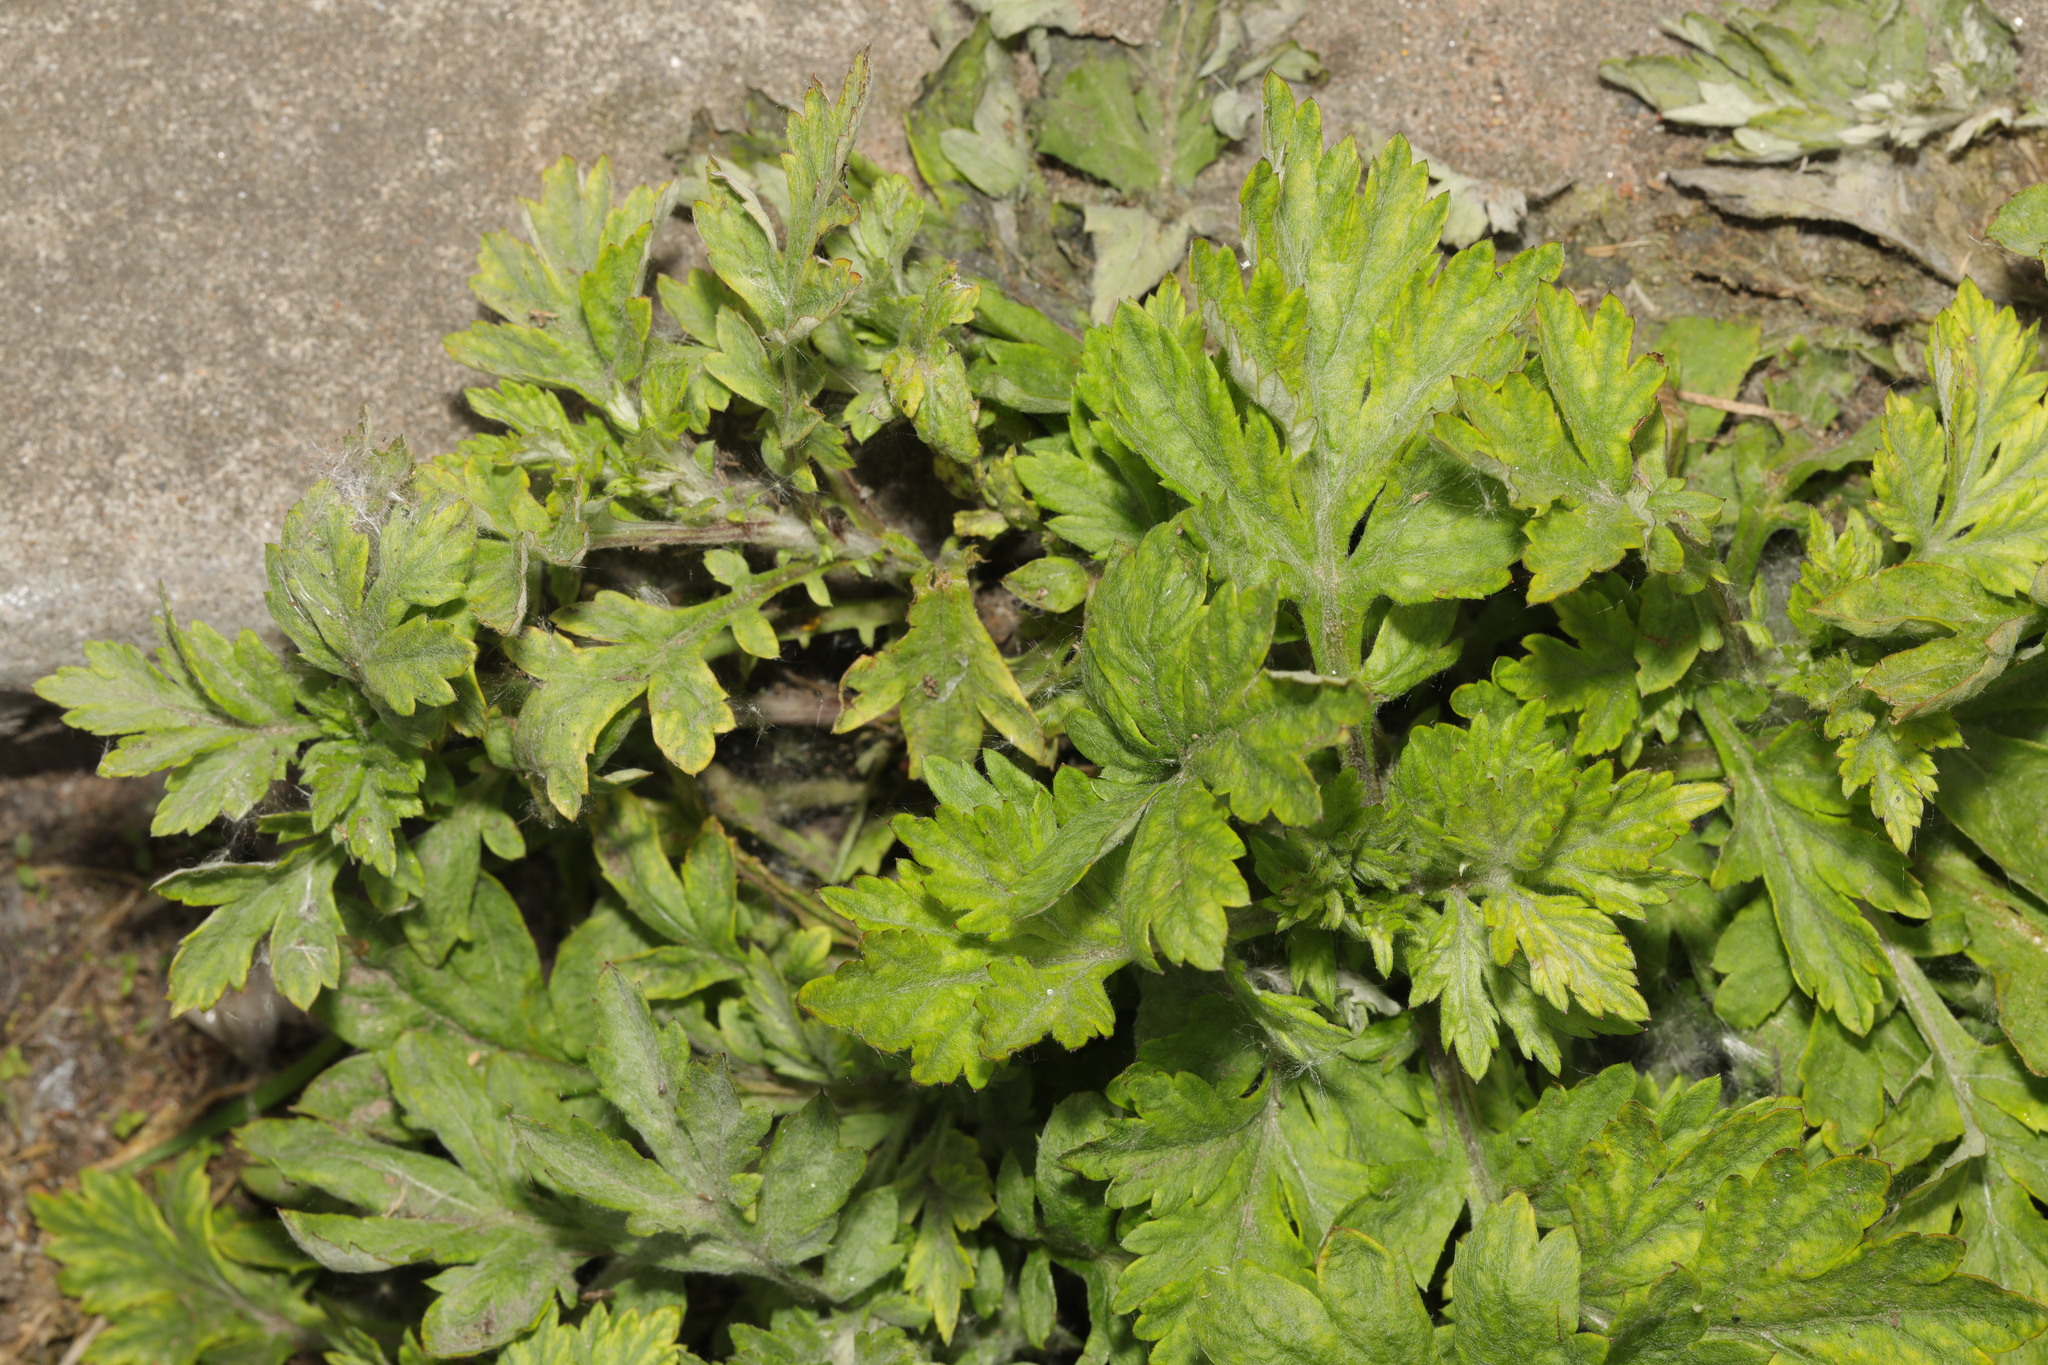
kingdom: Plantae
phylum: Tracheophyta
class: Magnoliopsida
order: Asterales
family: Asteraceae
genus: Artemisia
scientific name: Artemisia vulgaris
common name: Mugwort
